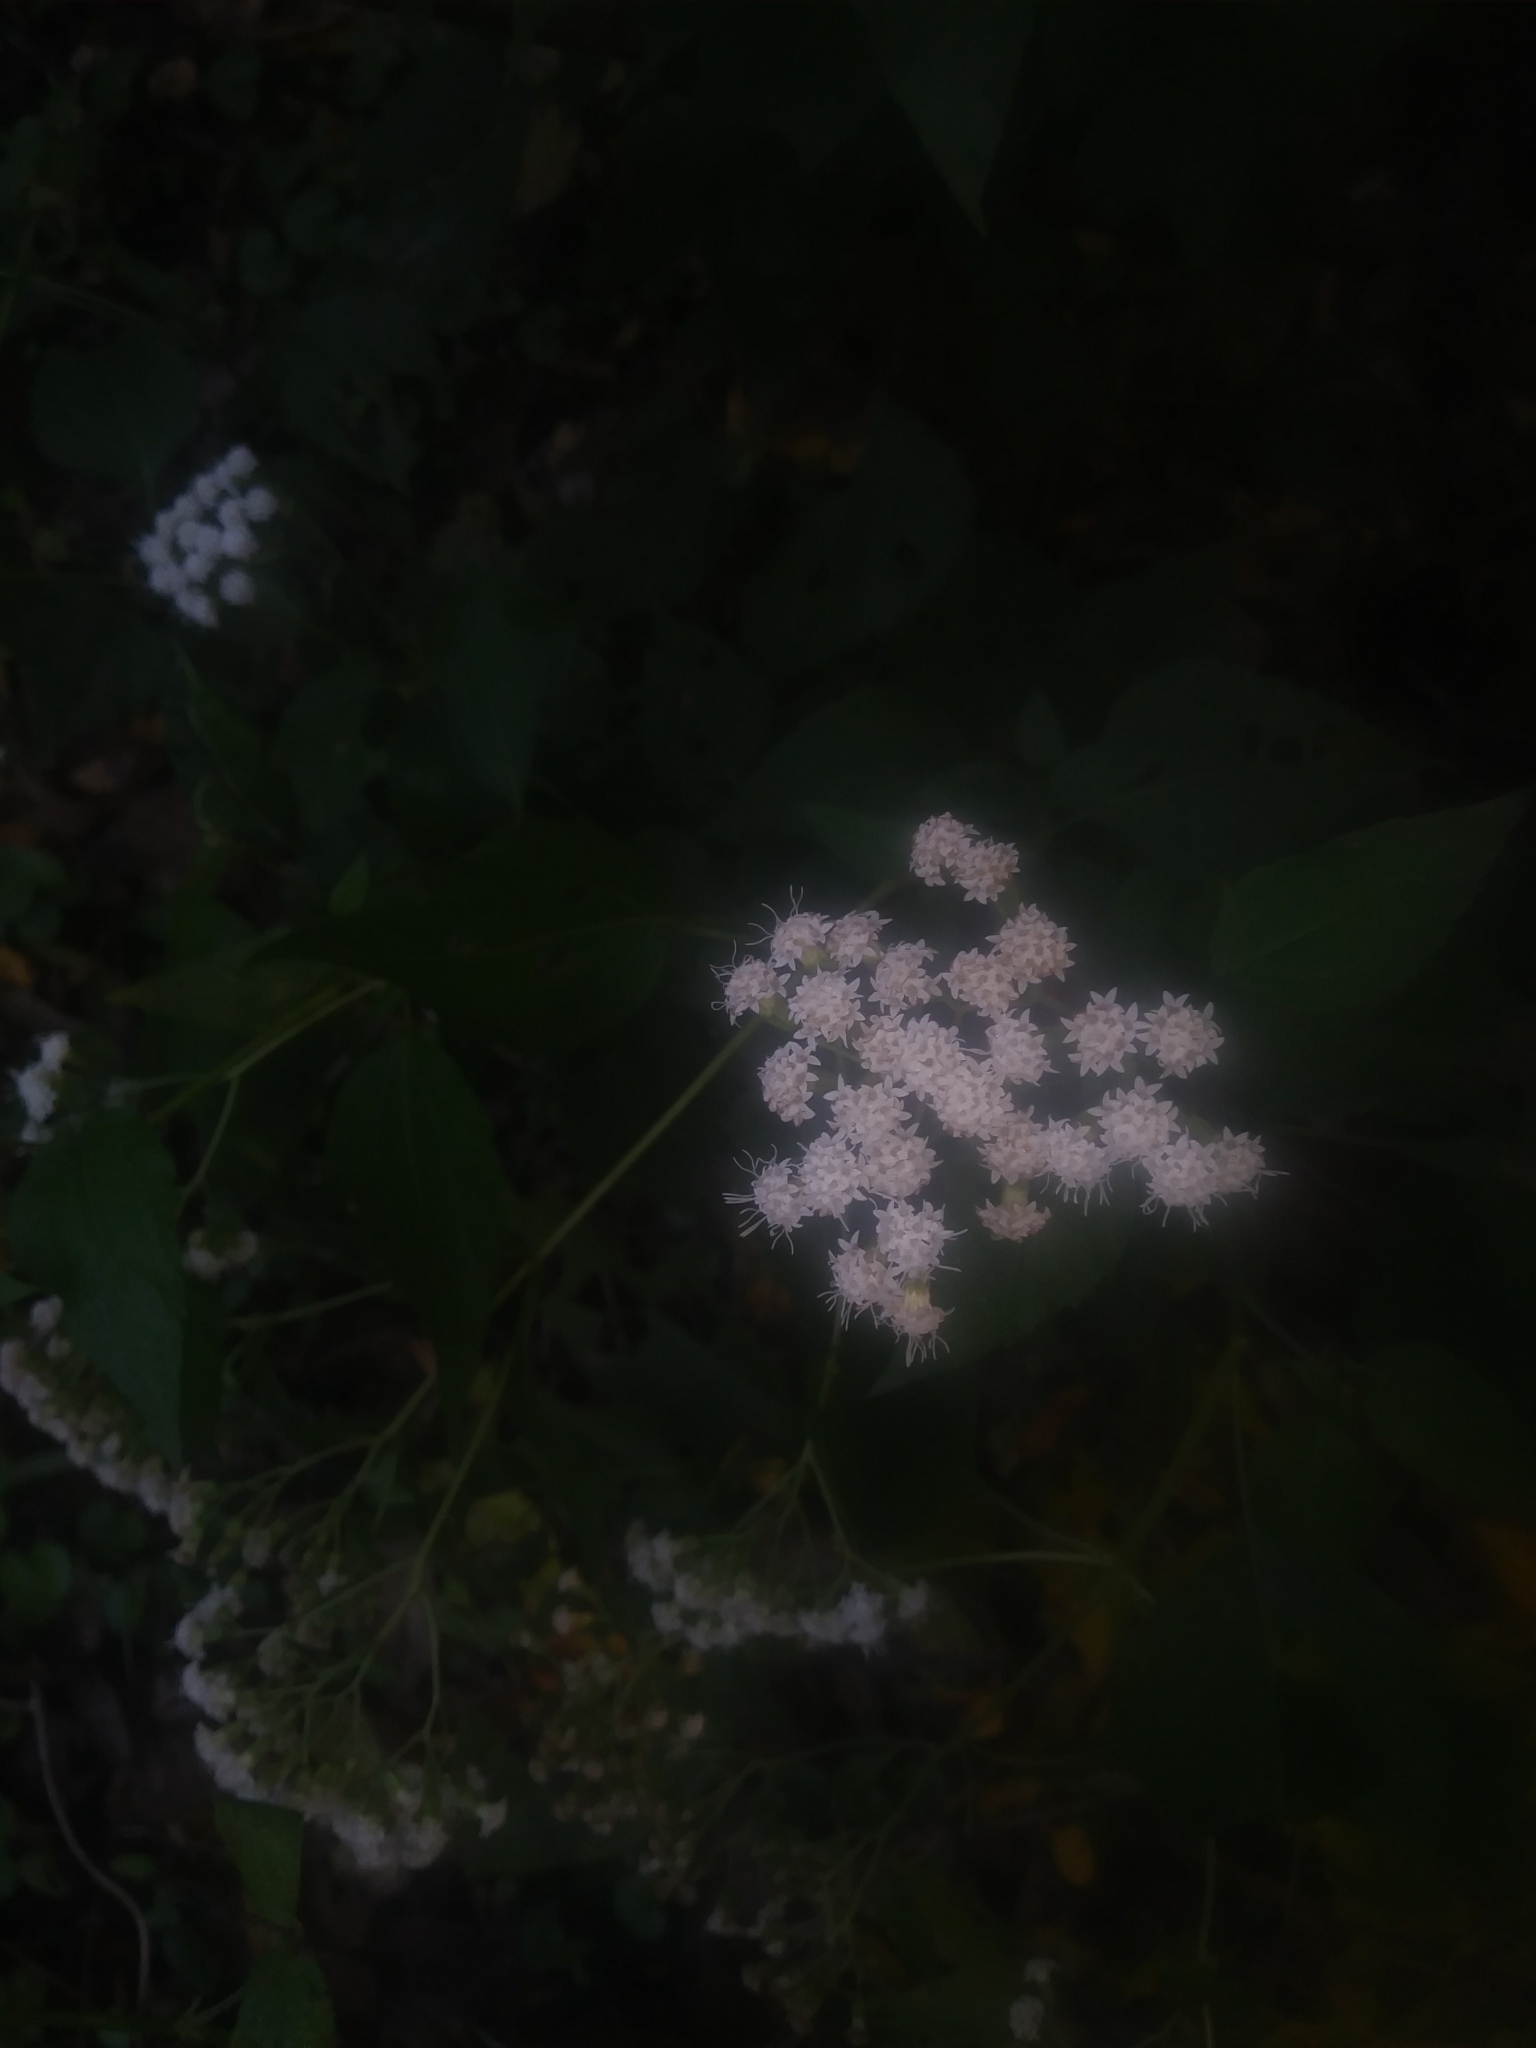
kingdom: Plantae
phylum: Tracheophyta
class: Magnoliopsida
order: Asterales
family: Asteraceae
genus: Ageratina
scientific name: Ageratina altissima
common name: White snakeroot
